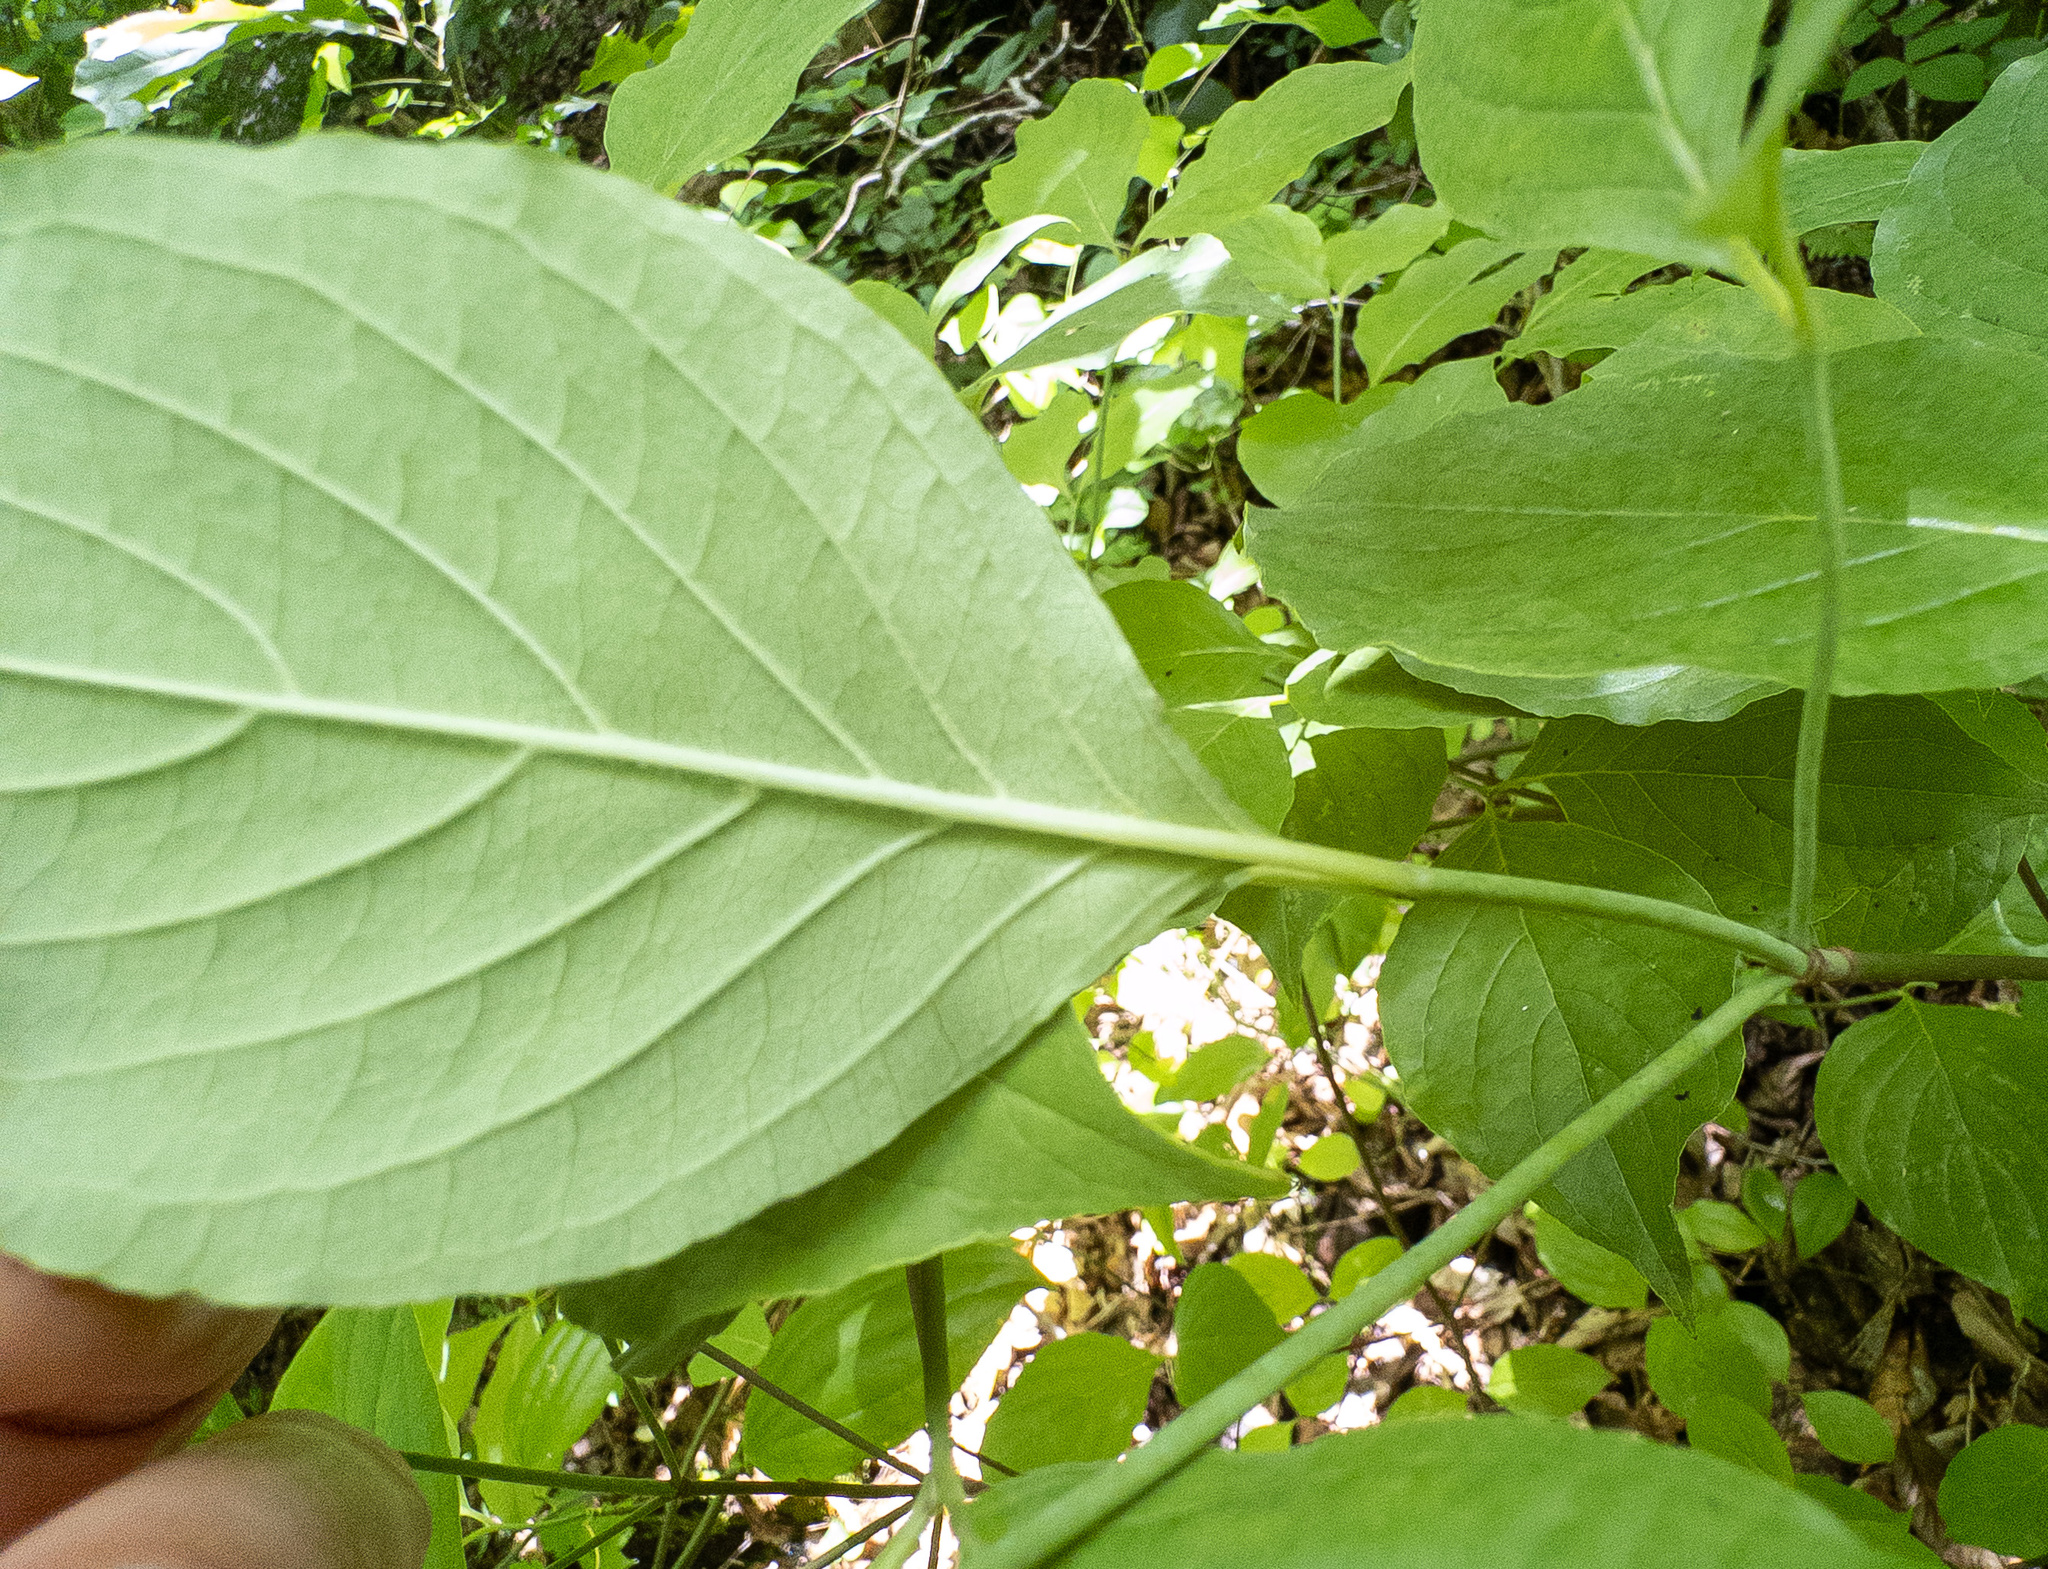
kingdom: Plantae
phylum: Tracheophyta
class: Magnoliopsida
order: Cornales
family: Cornaceae
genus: Cornus
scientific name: Cornus florida
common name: Flowering dogwood
